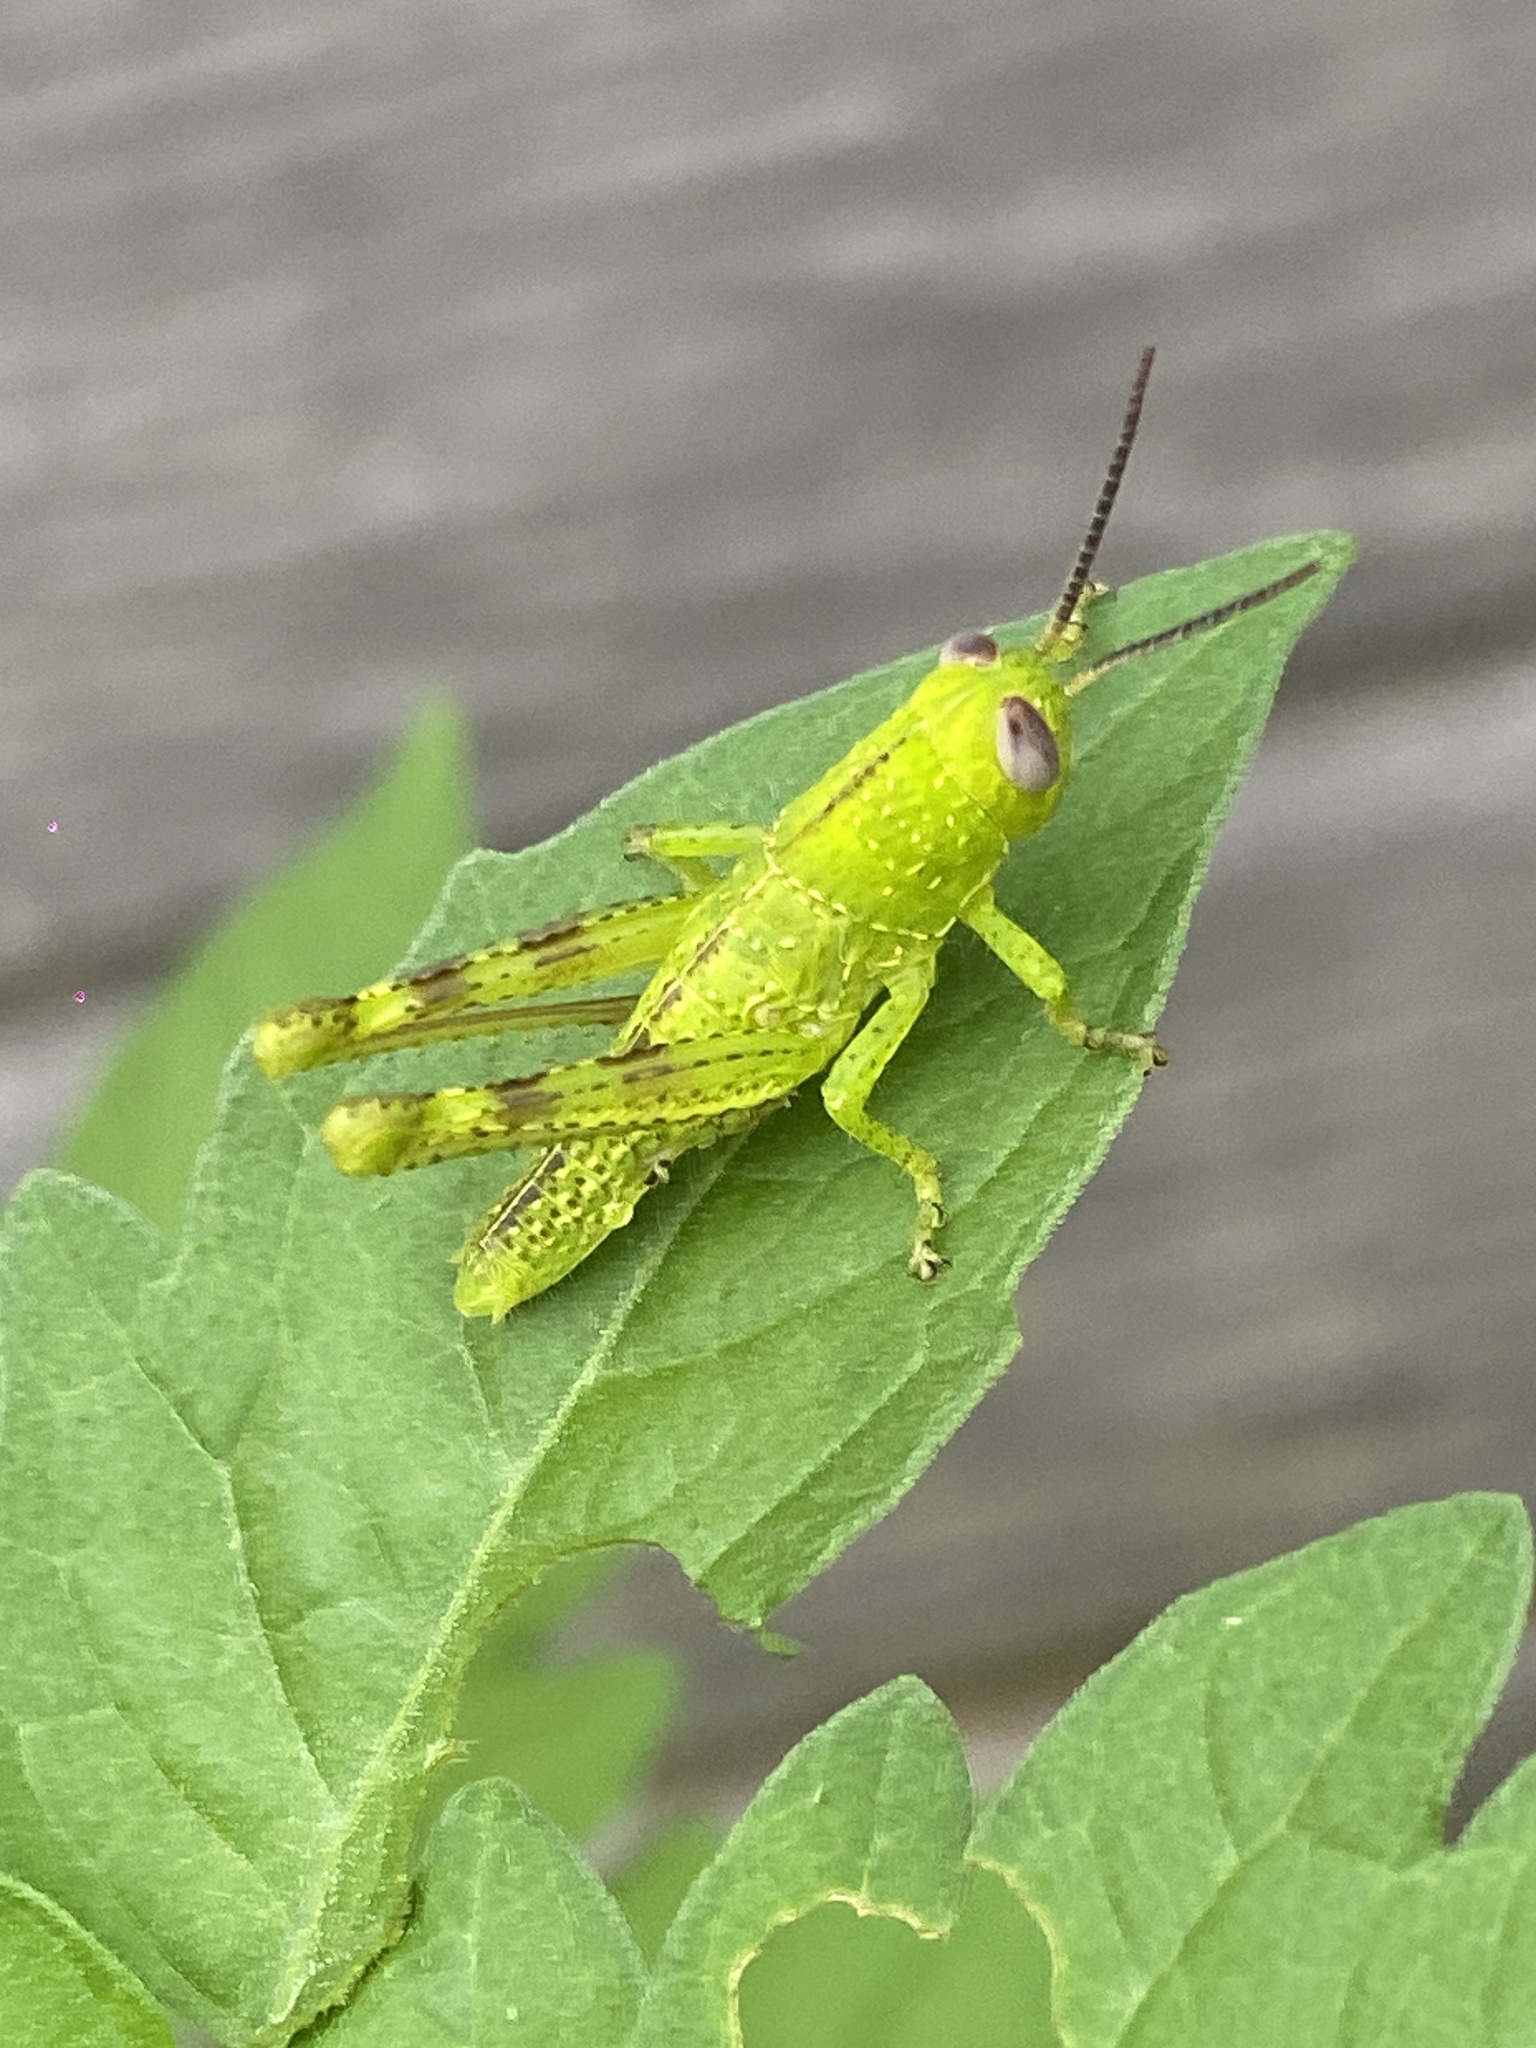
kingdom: Animalia
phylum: Arthropoda
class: Insecta
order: Orthoptera
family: Acrididae
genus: Valanga
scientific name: Valanga irregularis
